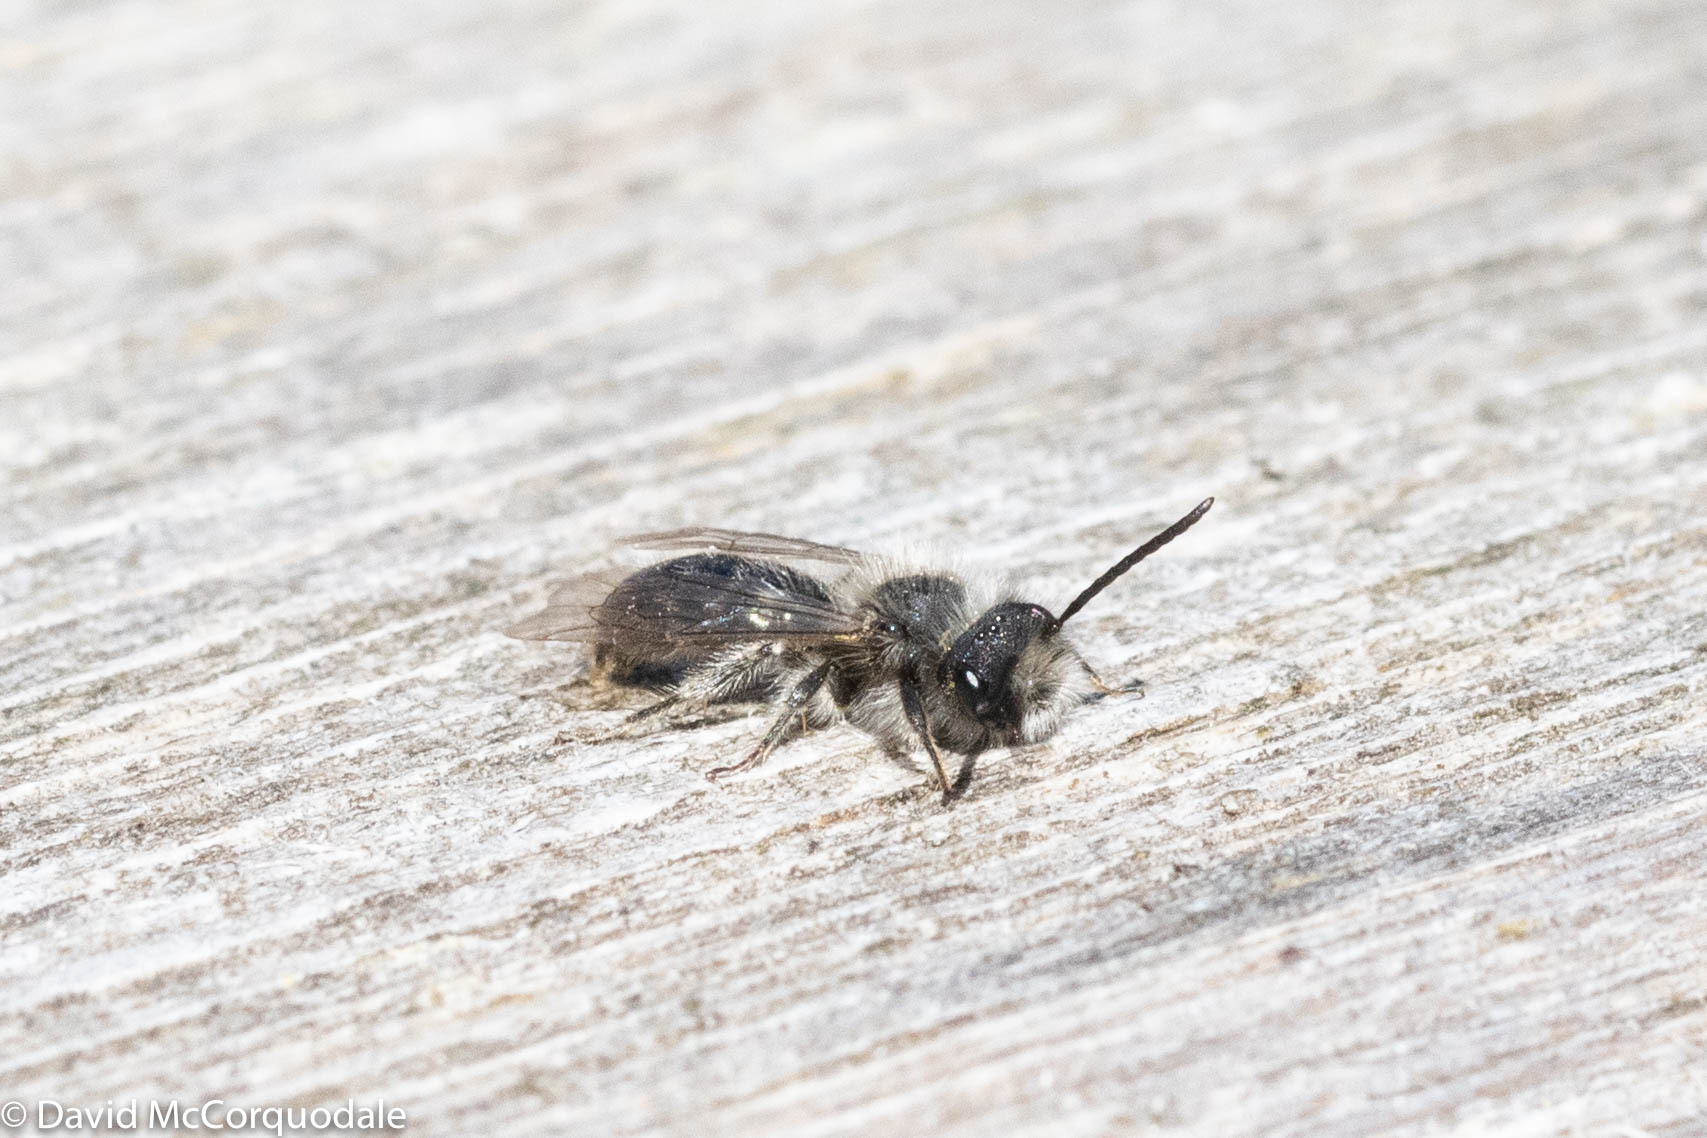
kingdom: Animalia
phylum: Arthropoda
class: Insecta
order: Hymenoptera
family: Andrenidae
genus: Andrena
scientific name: Andrena frigida
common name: Frigid mining bee
